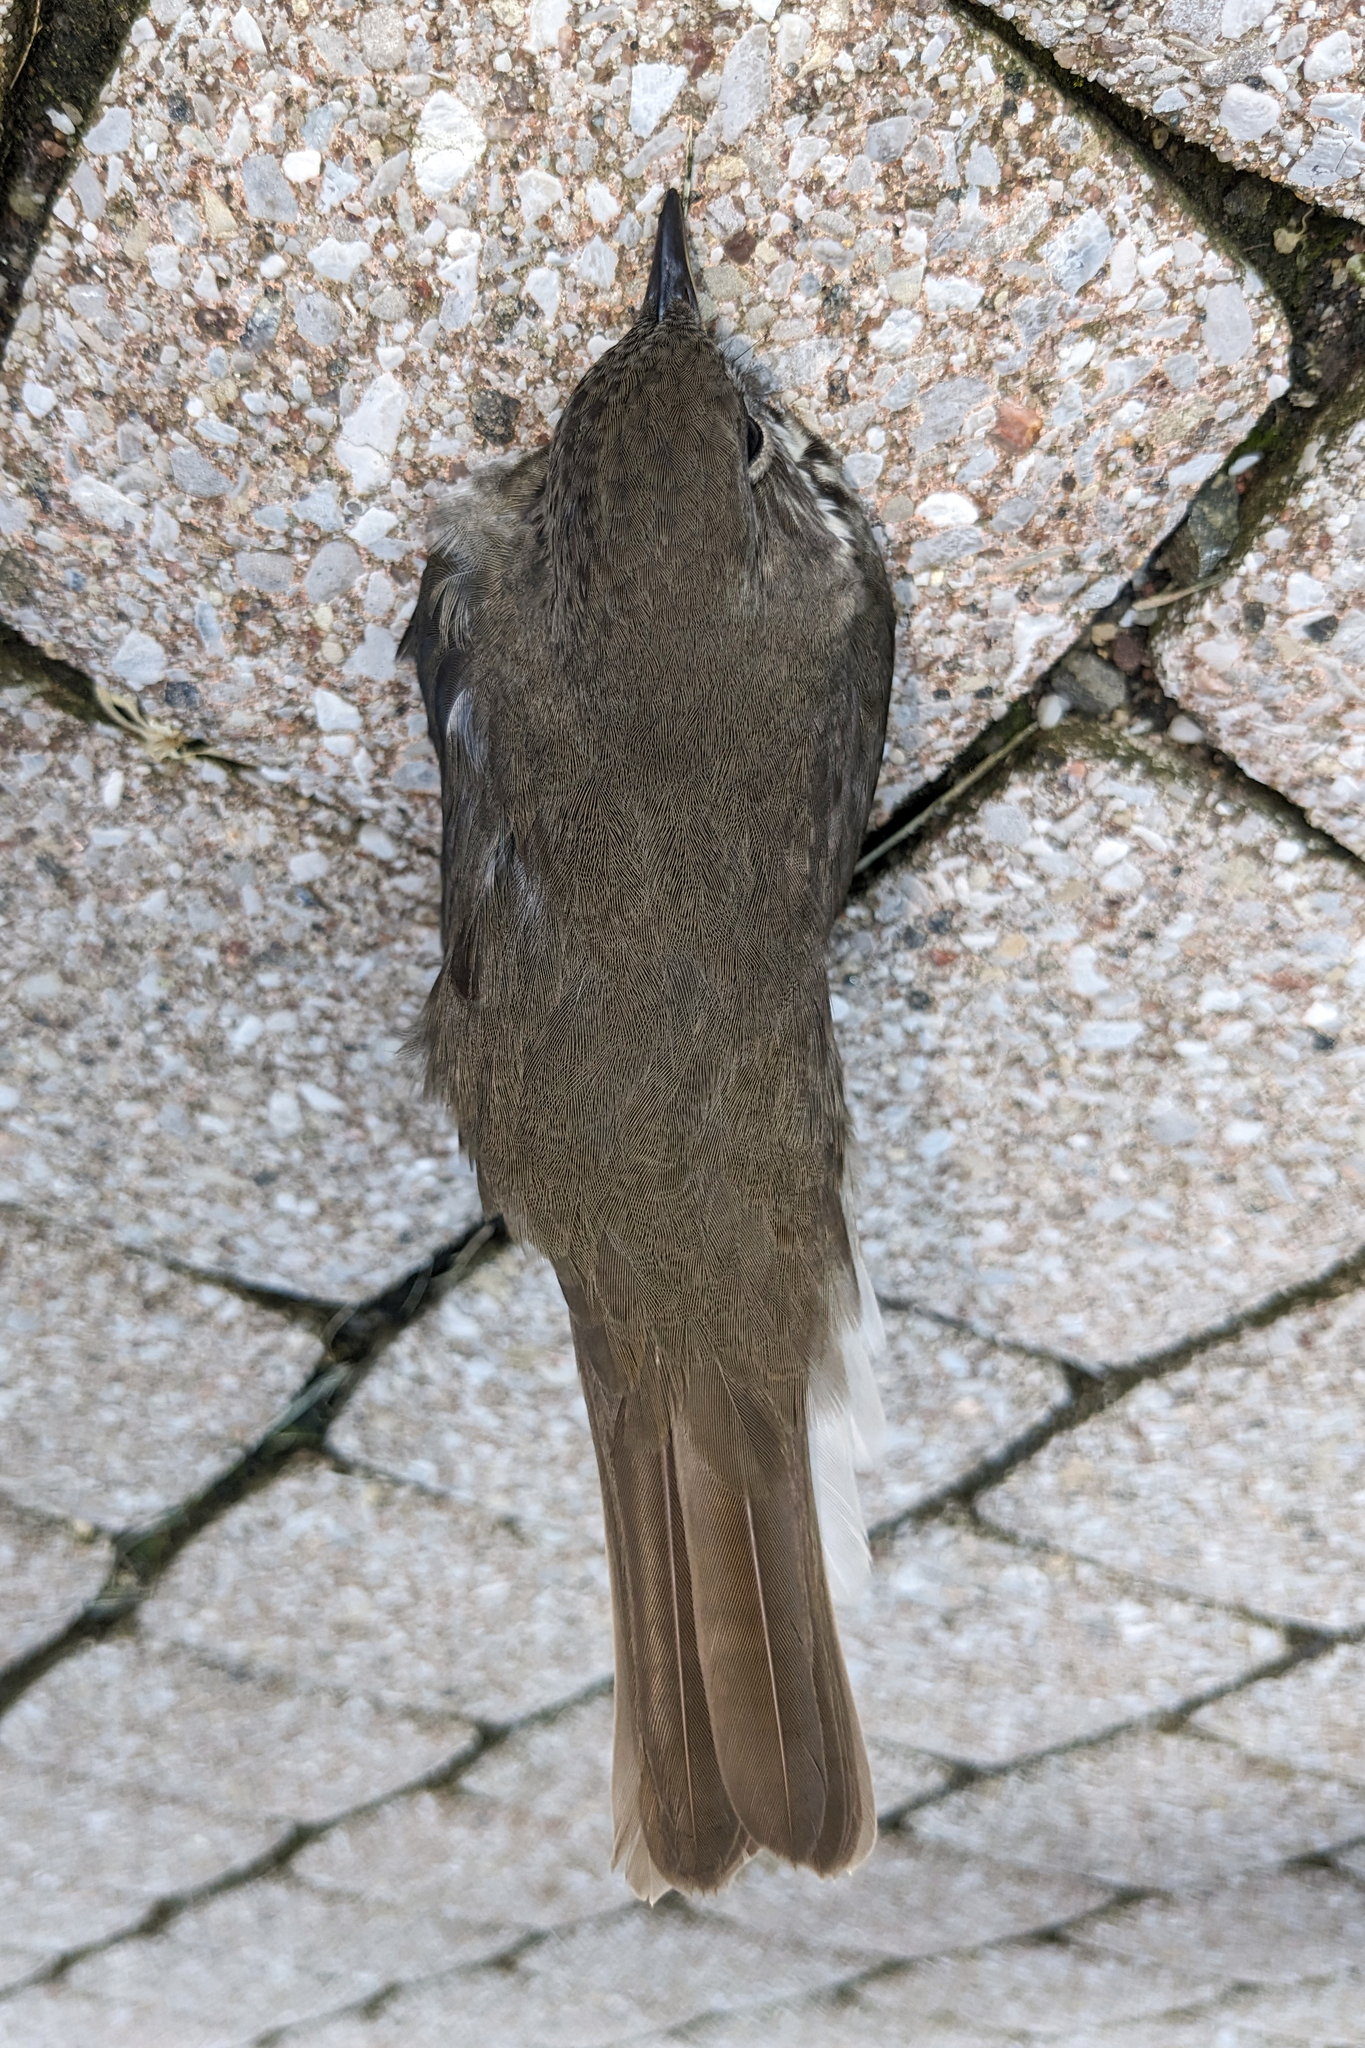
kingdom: Animalia
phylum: Chordata
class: Aves
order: Passeriformes
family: Turdidae
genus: Catharus
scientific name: Catharus minimus
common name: Grey-cheeked thrush
